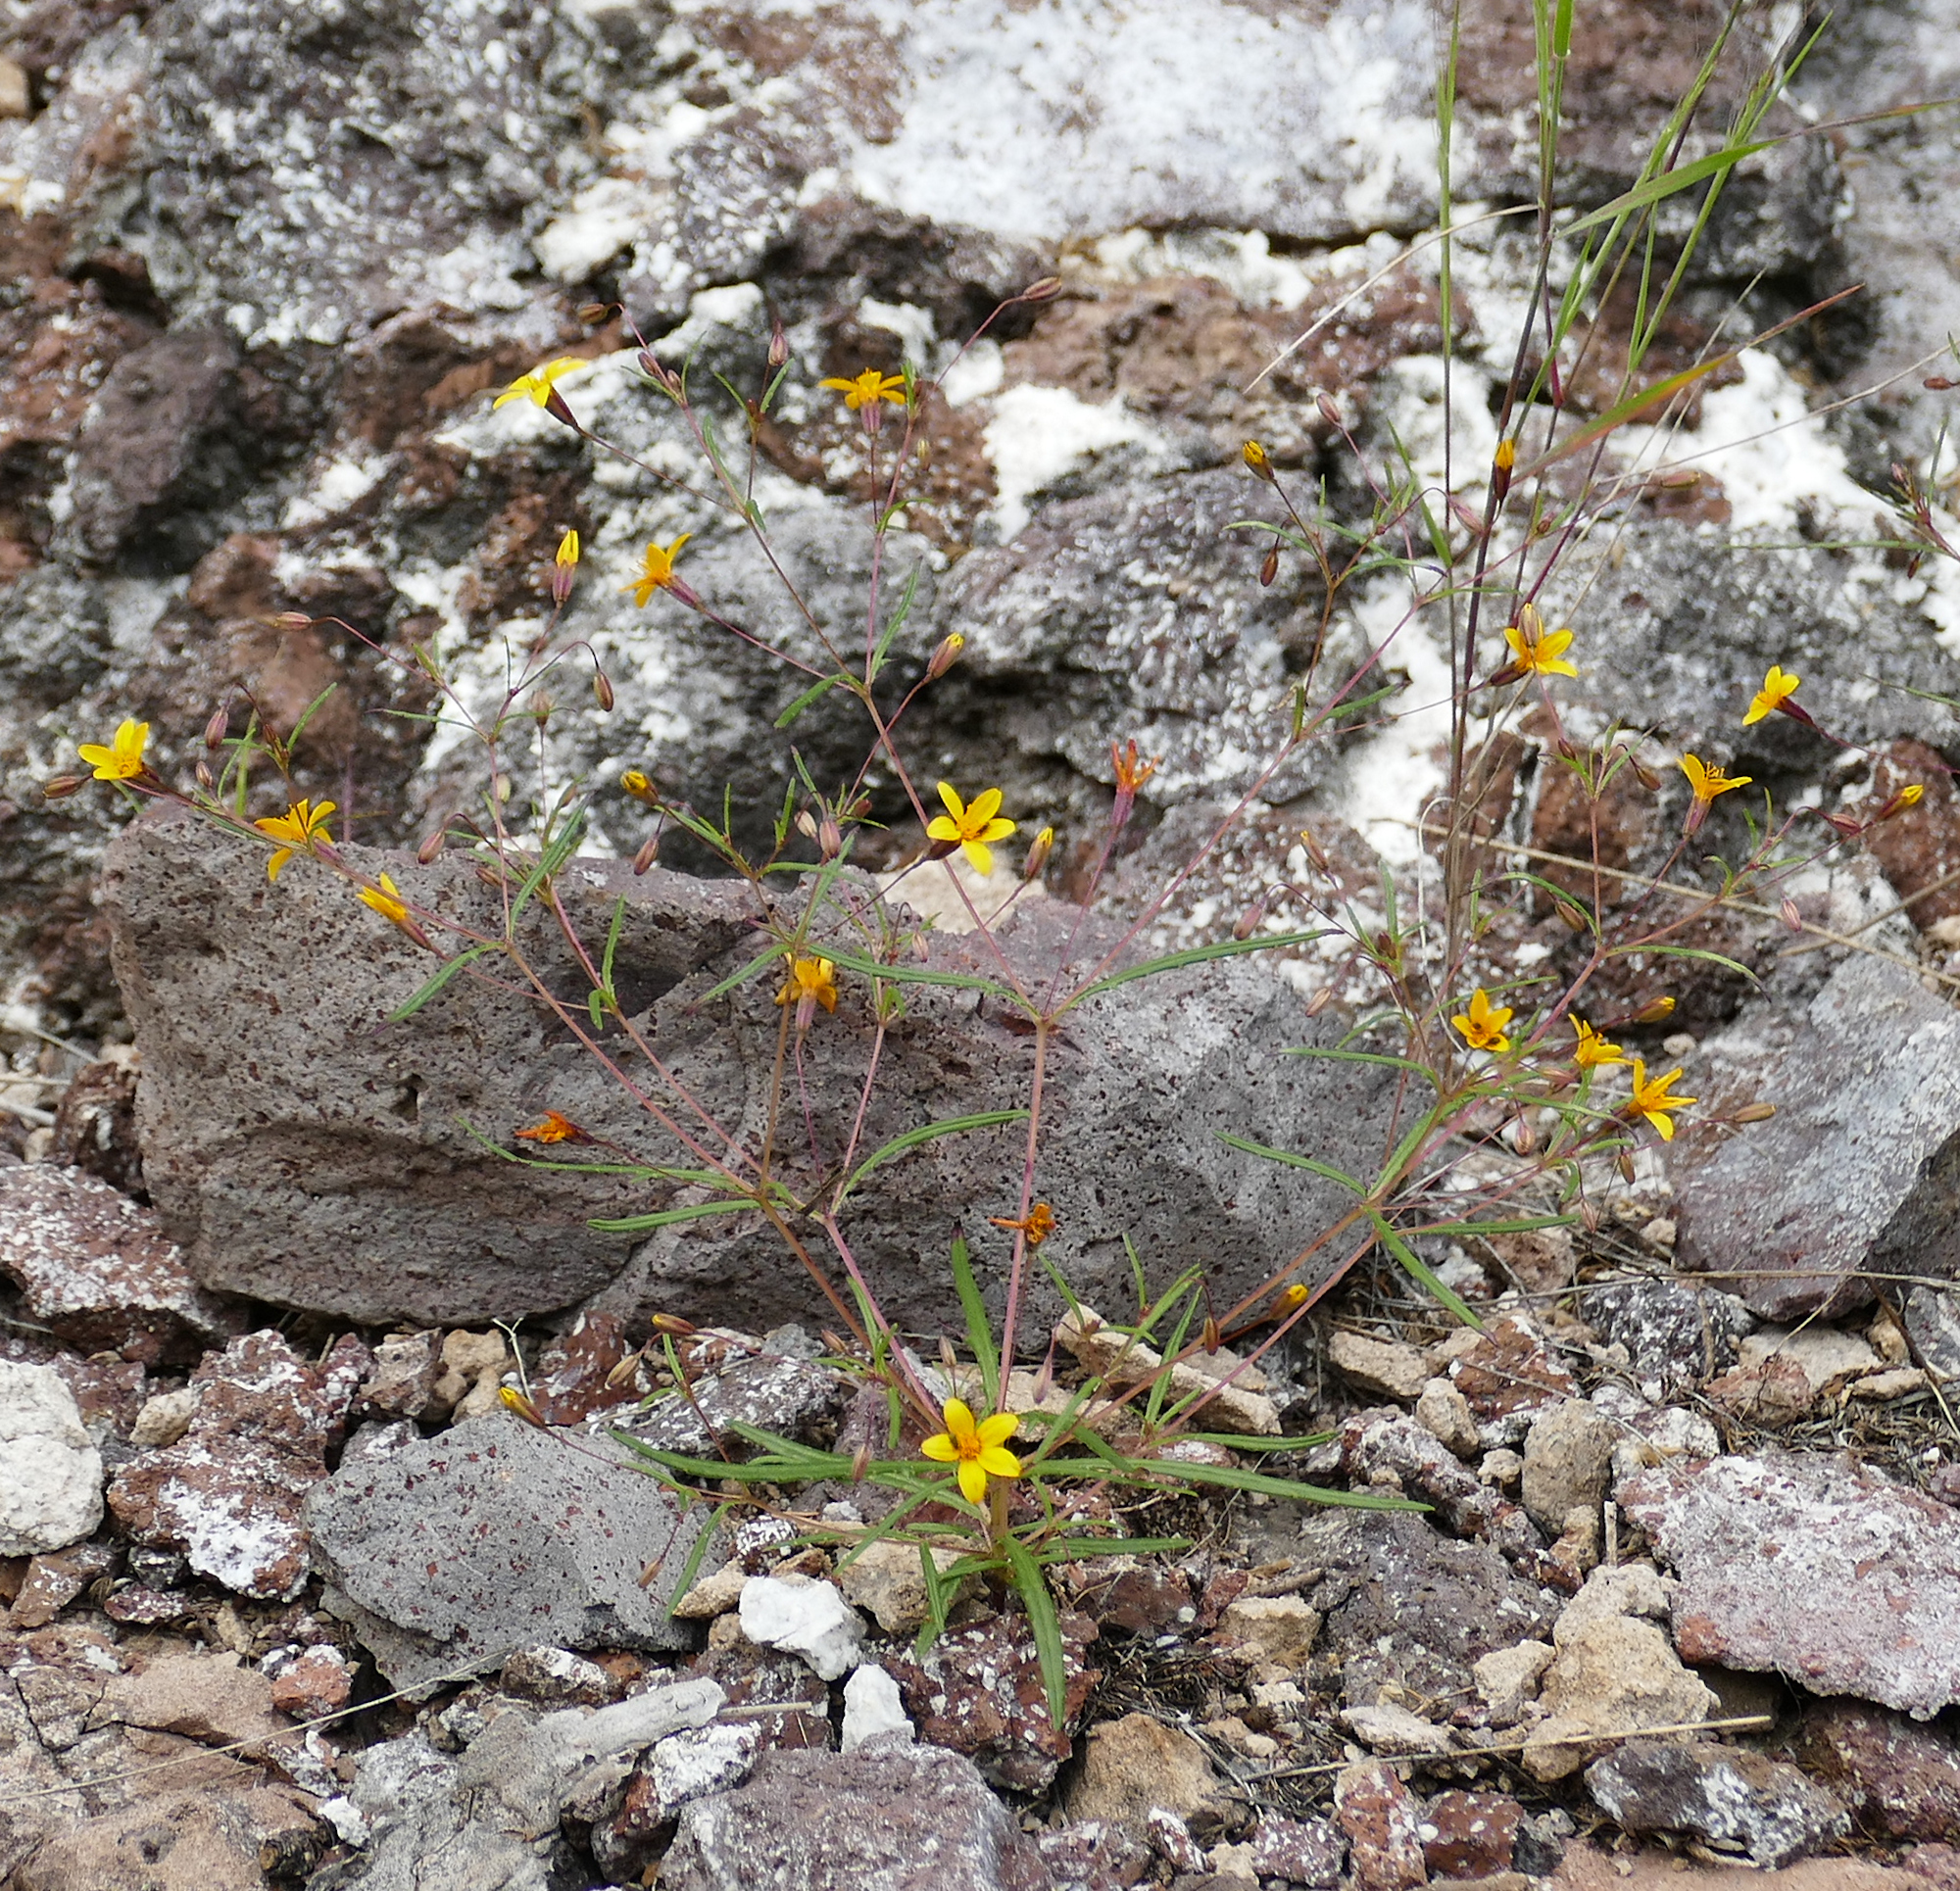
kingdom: Plantae
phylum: Tracheophyta
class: Magnoliopsida
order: Asterales
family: Asteraceae
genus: Pectis
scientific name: Pectis filipes
